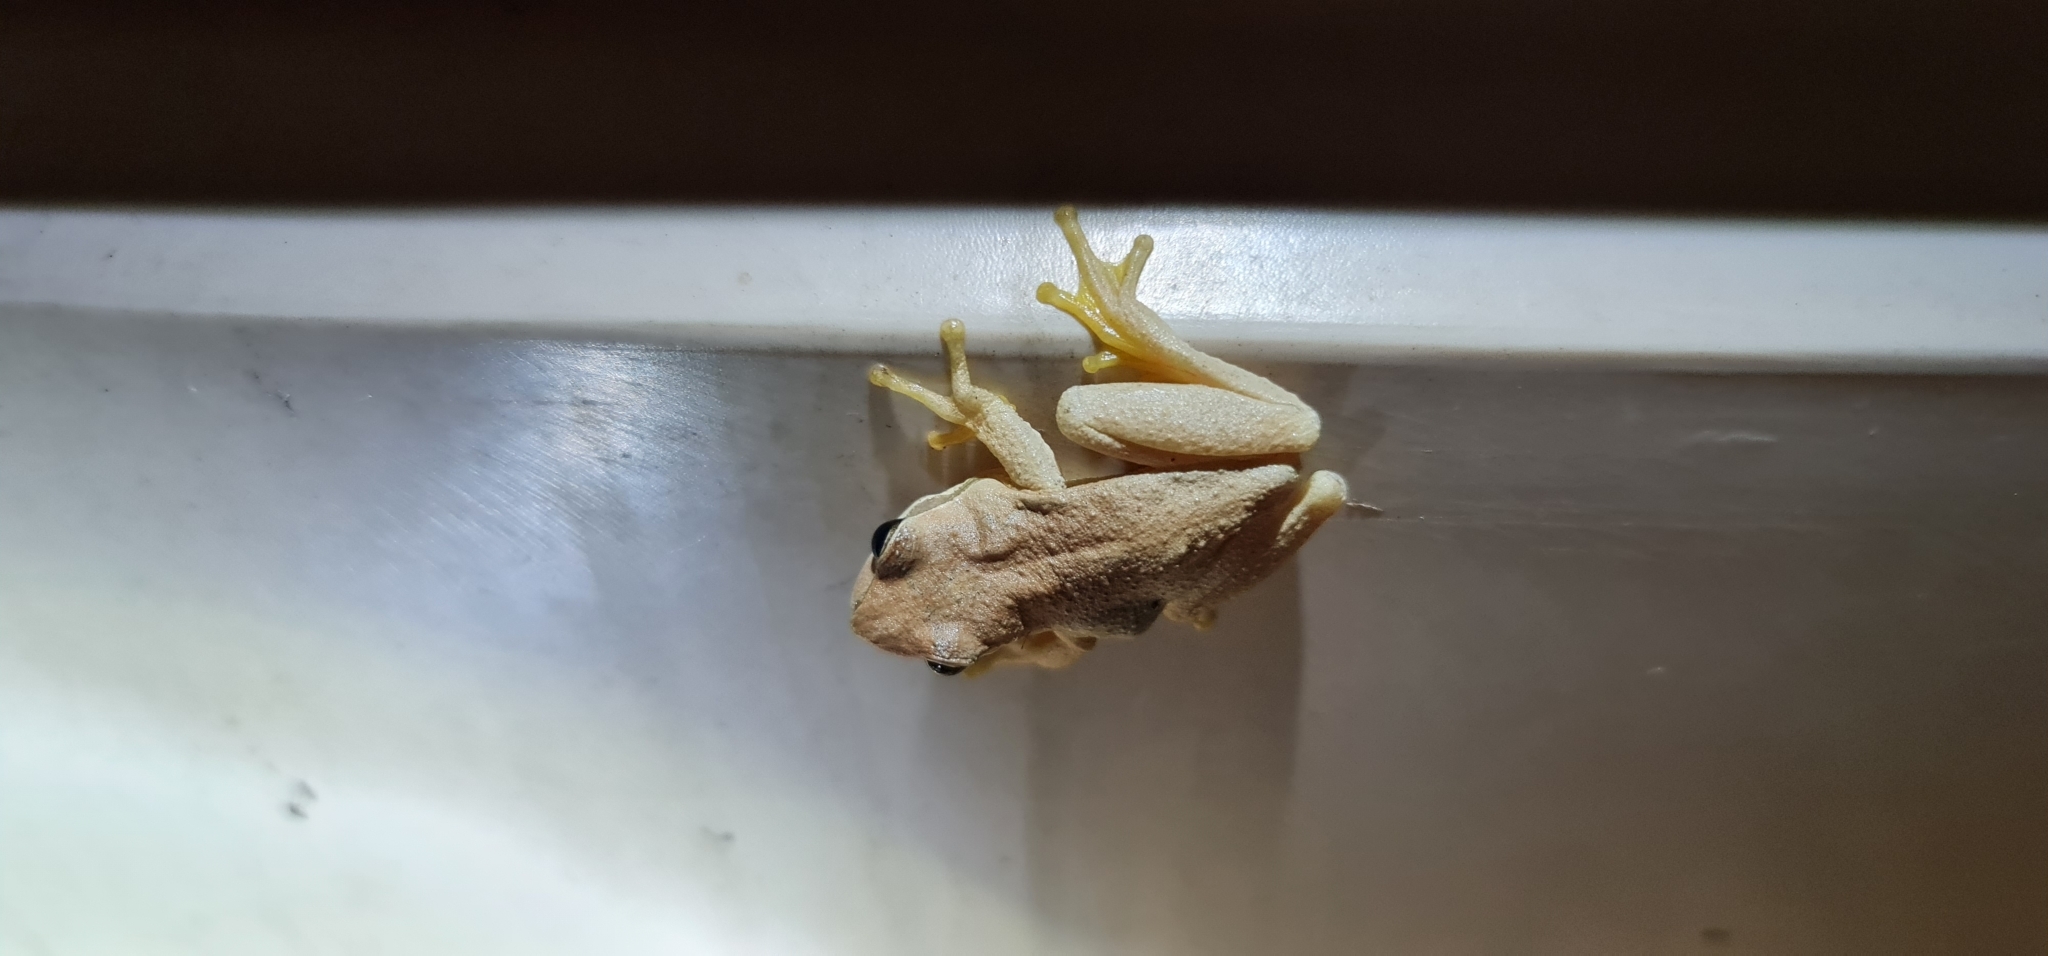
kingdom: Animalia
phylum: Chordata
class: Amphibia
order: Anura
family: Pelodryadidae
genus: Litoria
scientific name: Litoria
